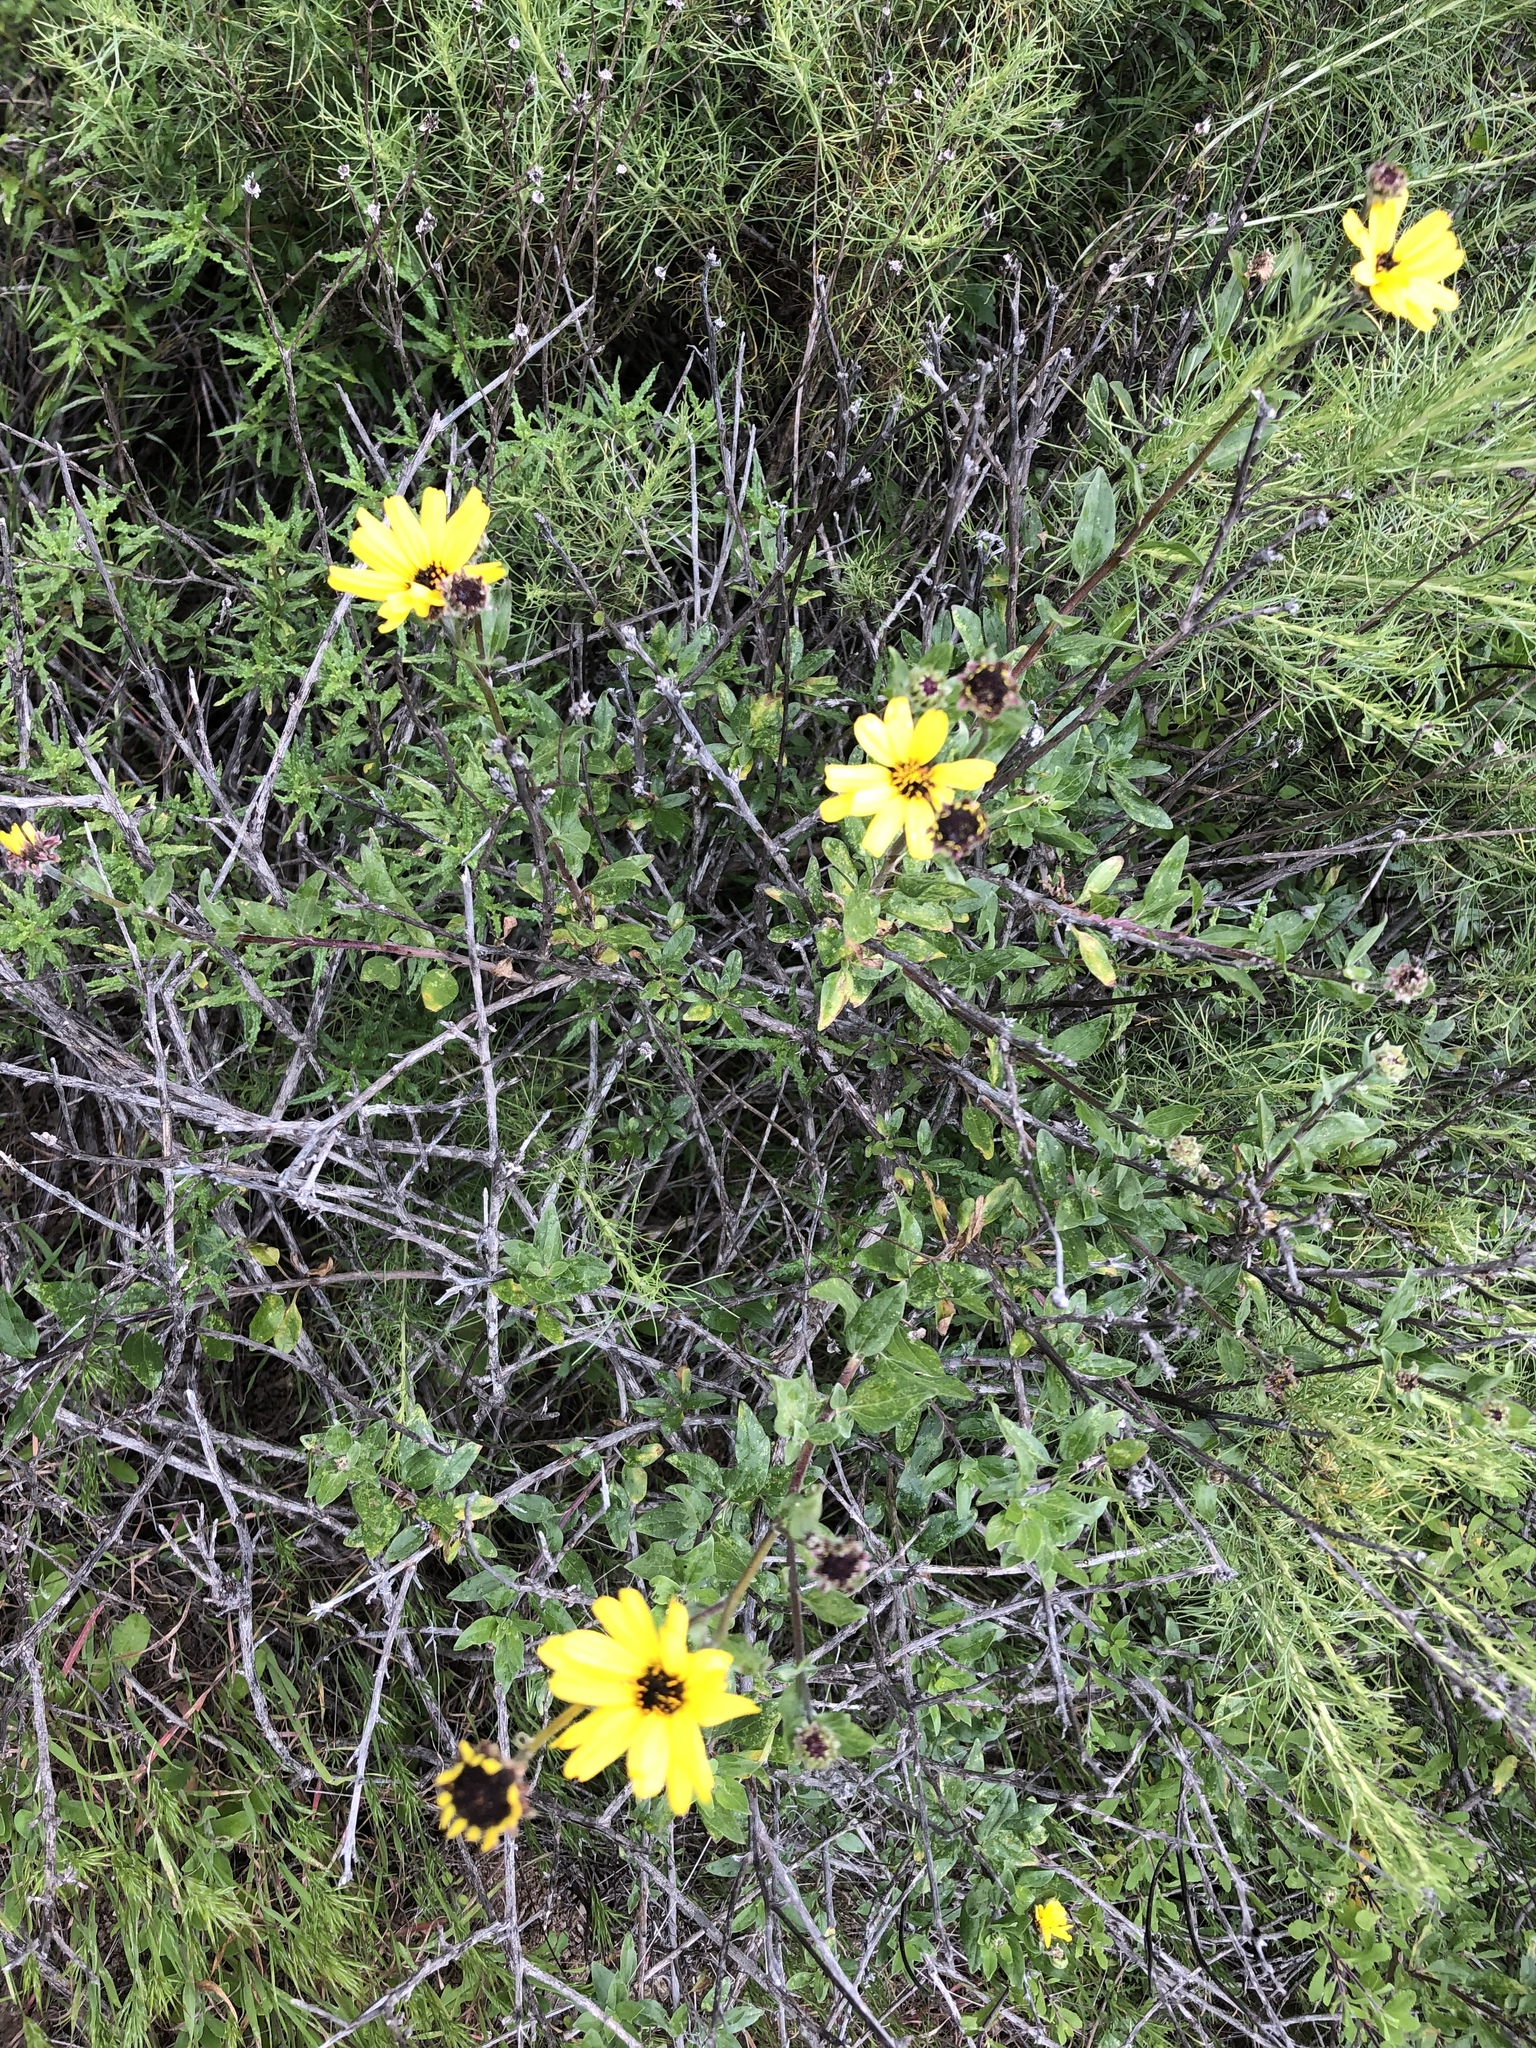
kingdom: Plantae
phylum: Tracheophyta
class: Magnoliopsida
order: Asterales
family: Asteraceae
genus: Encelia
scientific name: Encelia californica
